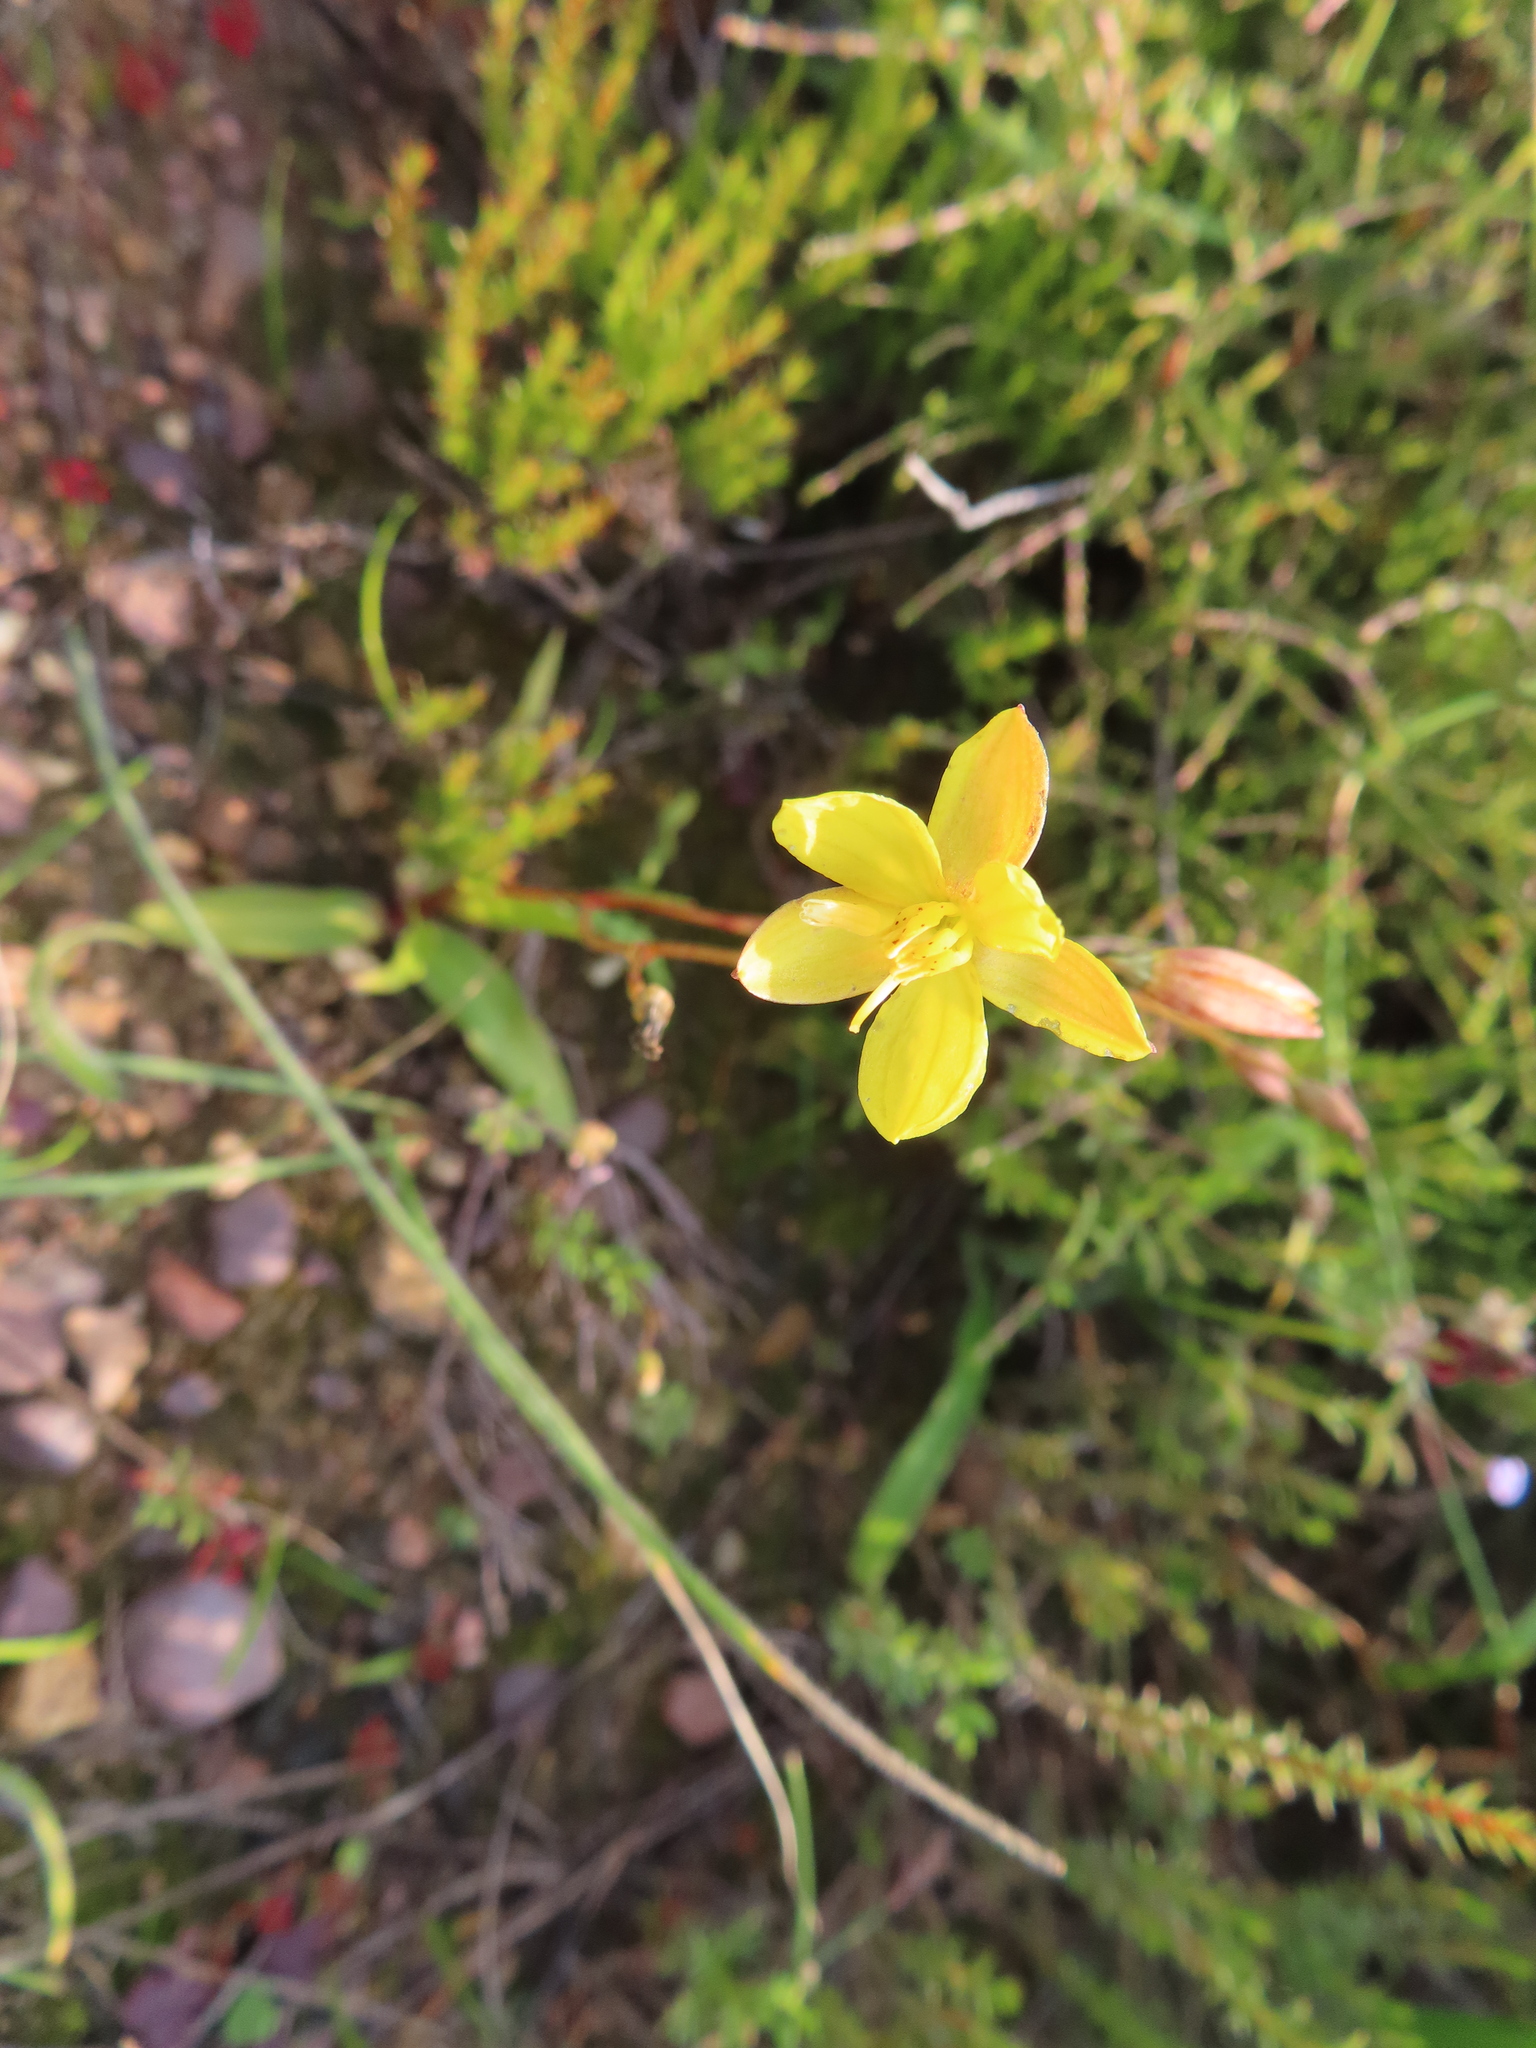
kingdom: Plantae
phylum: Tracheophyta
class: Liliopsida
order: Asparagales
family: Tecophilaeaceae
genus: Cyanella
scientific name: Cyanella lutea
